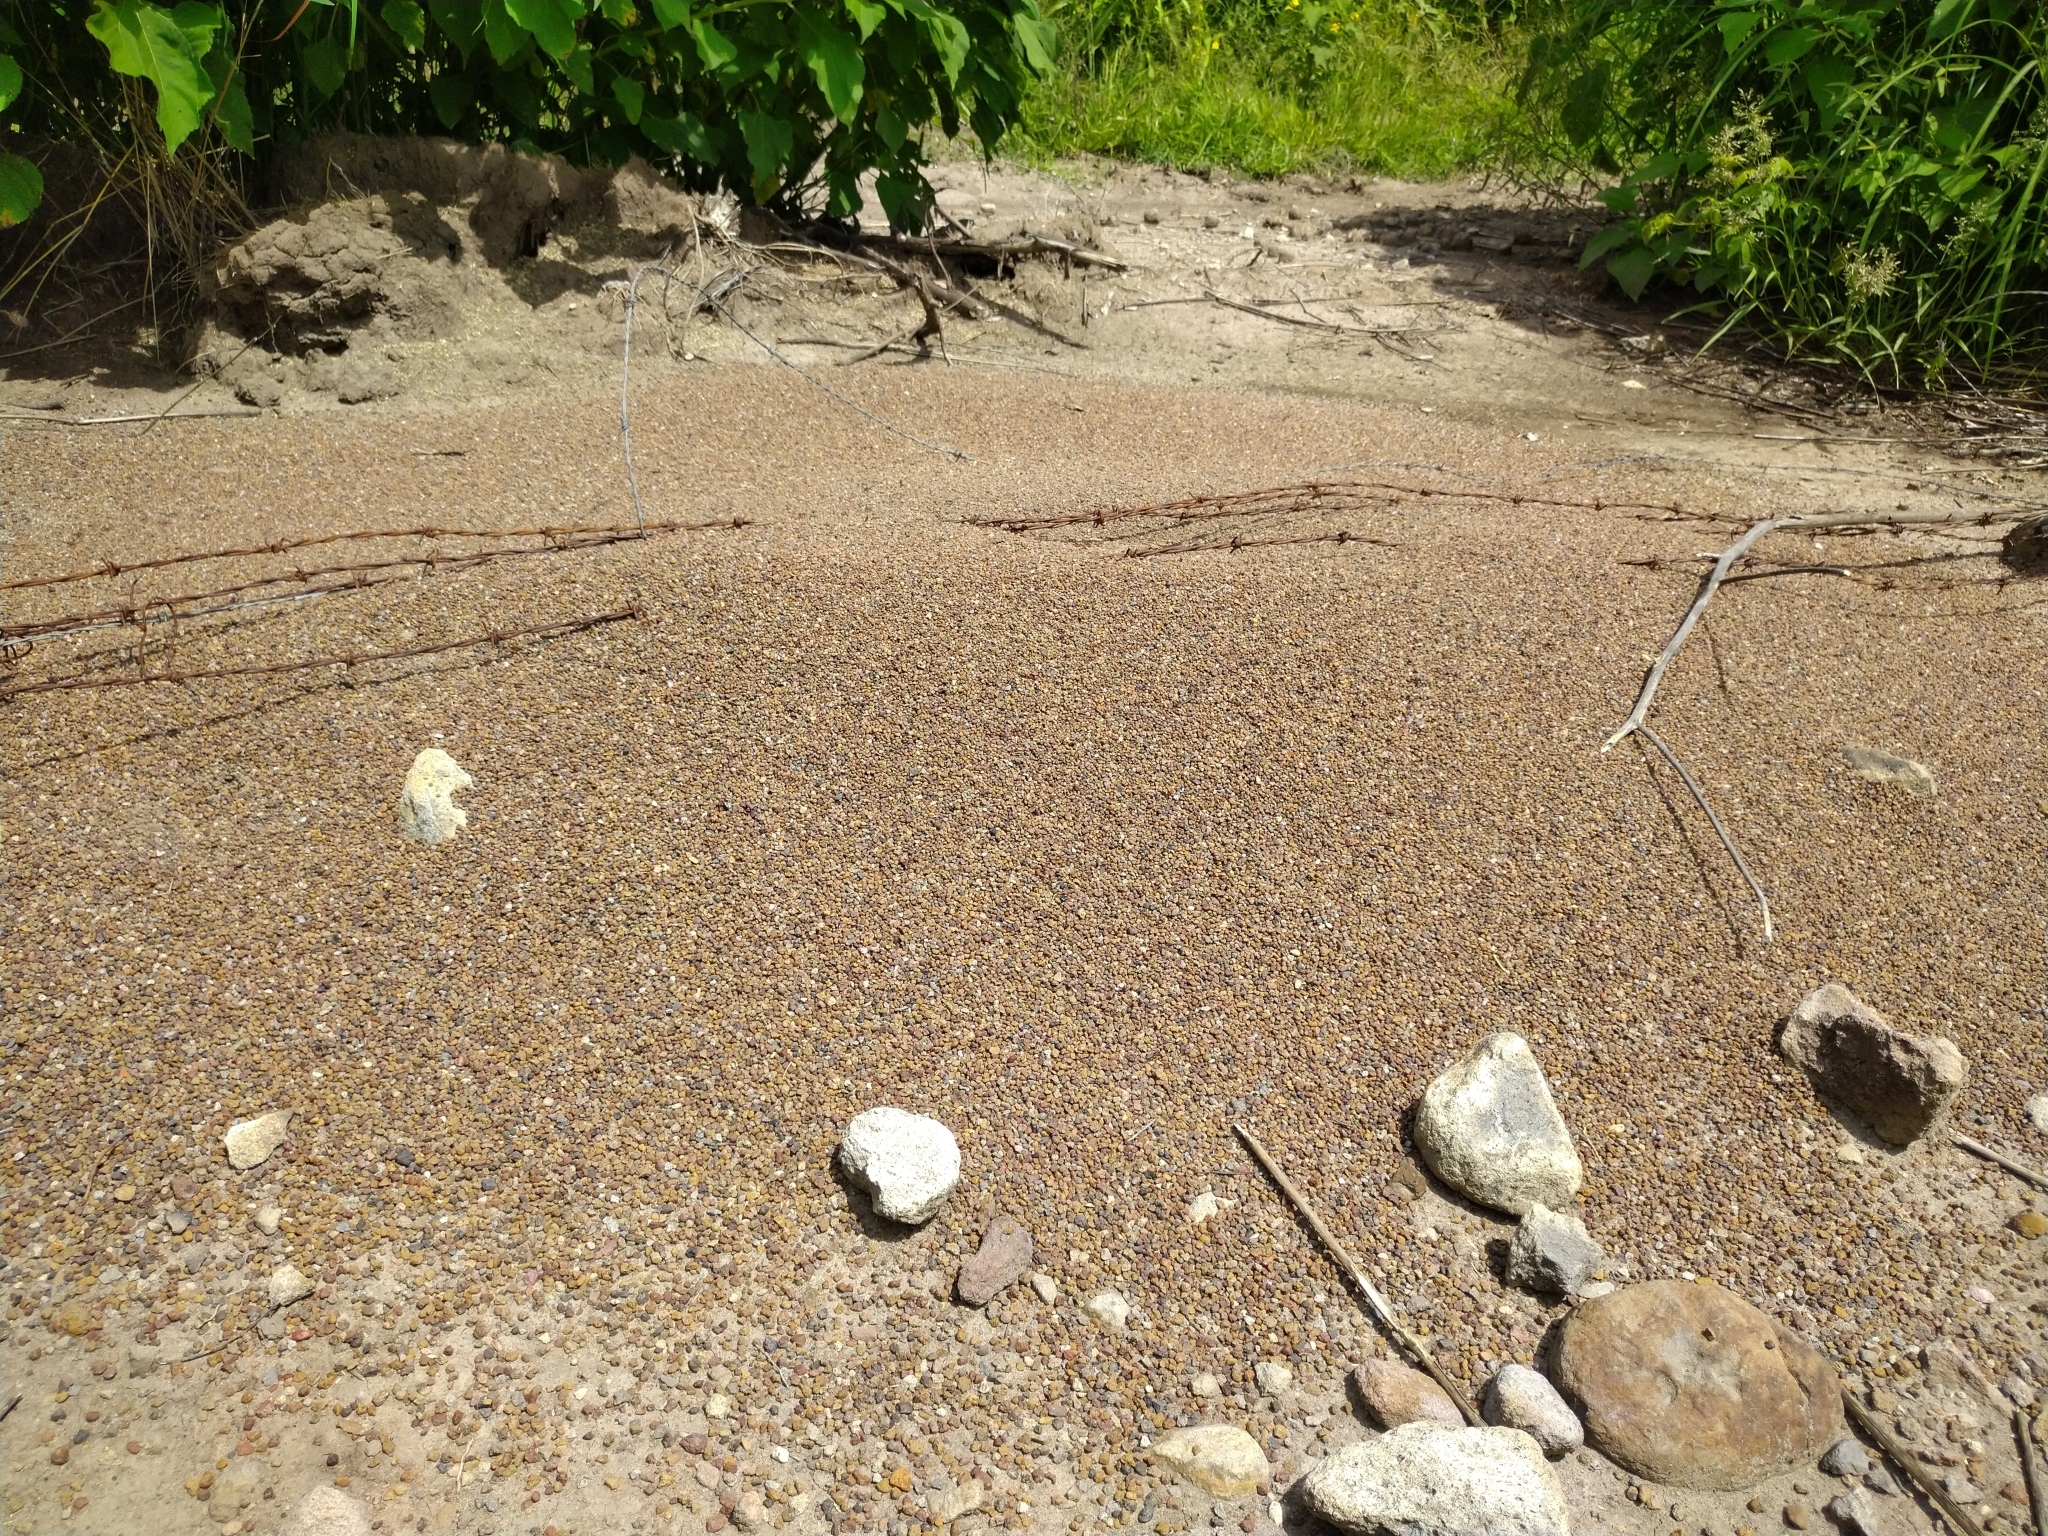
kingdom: Animalia
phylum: Arthropoda
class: Insecta
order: Hymenoptera
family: Formicidae
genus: Pogonomyrmex
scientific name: Pogonomyrmex barbatus
